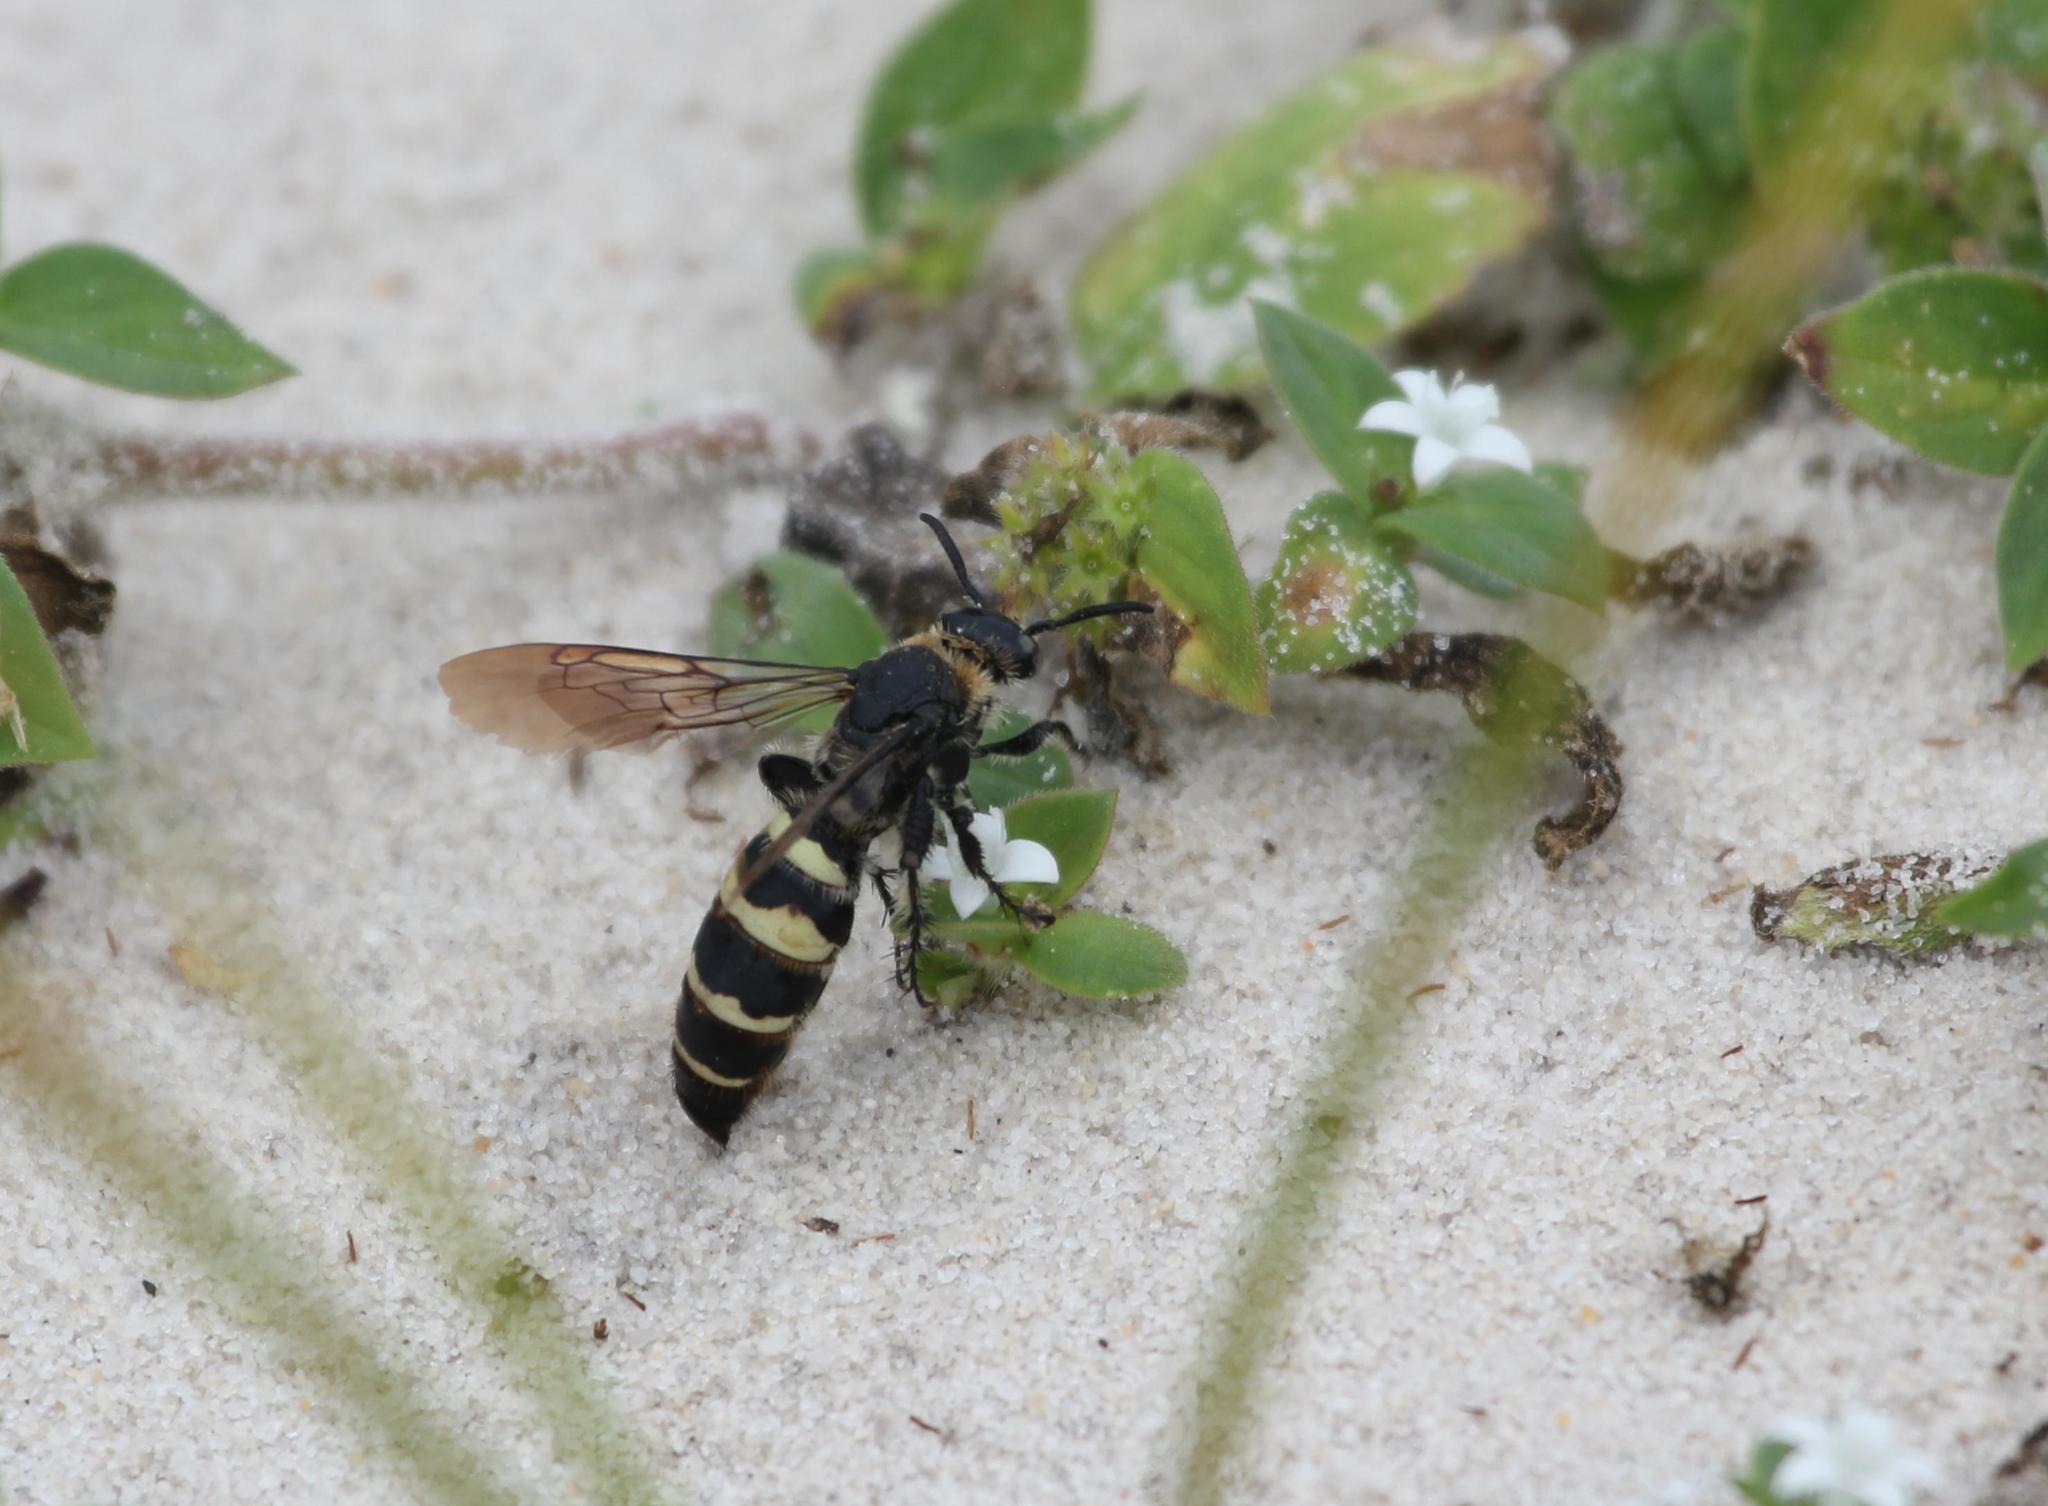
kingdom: Animalia
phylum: Arthropoda
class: Insecta
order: Hymenoptera
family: Scoliidae
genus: Dielis
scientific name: Dielis
